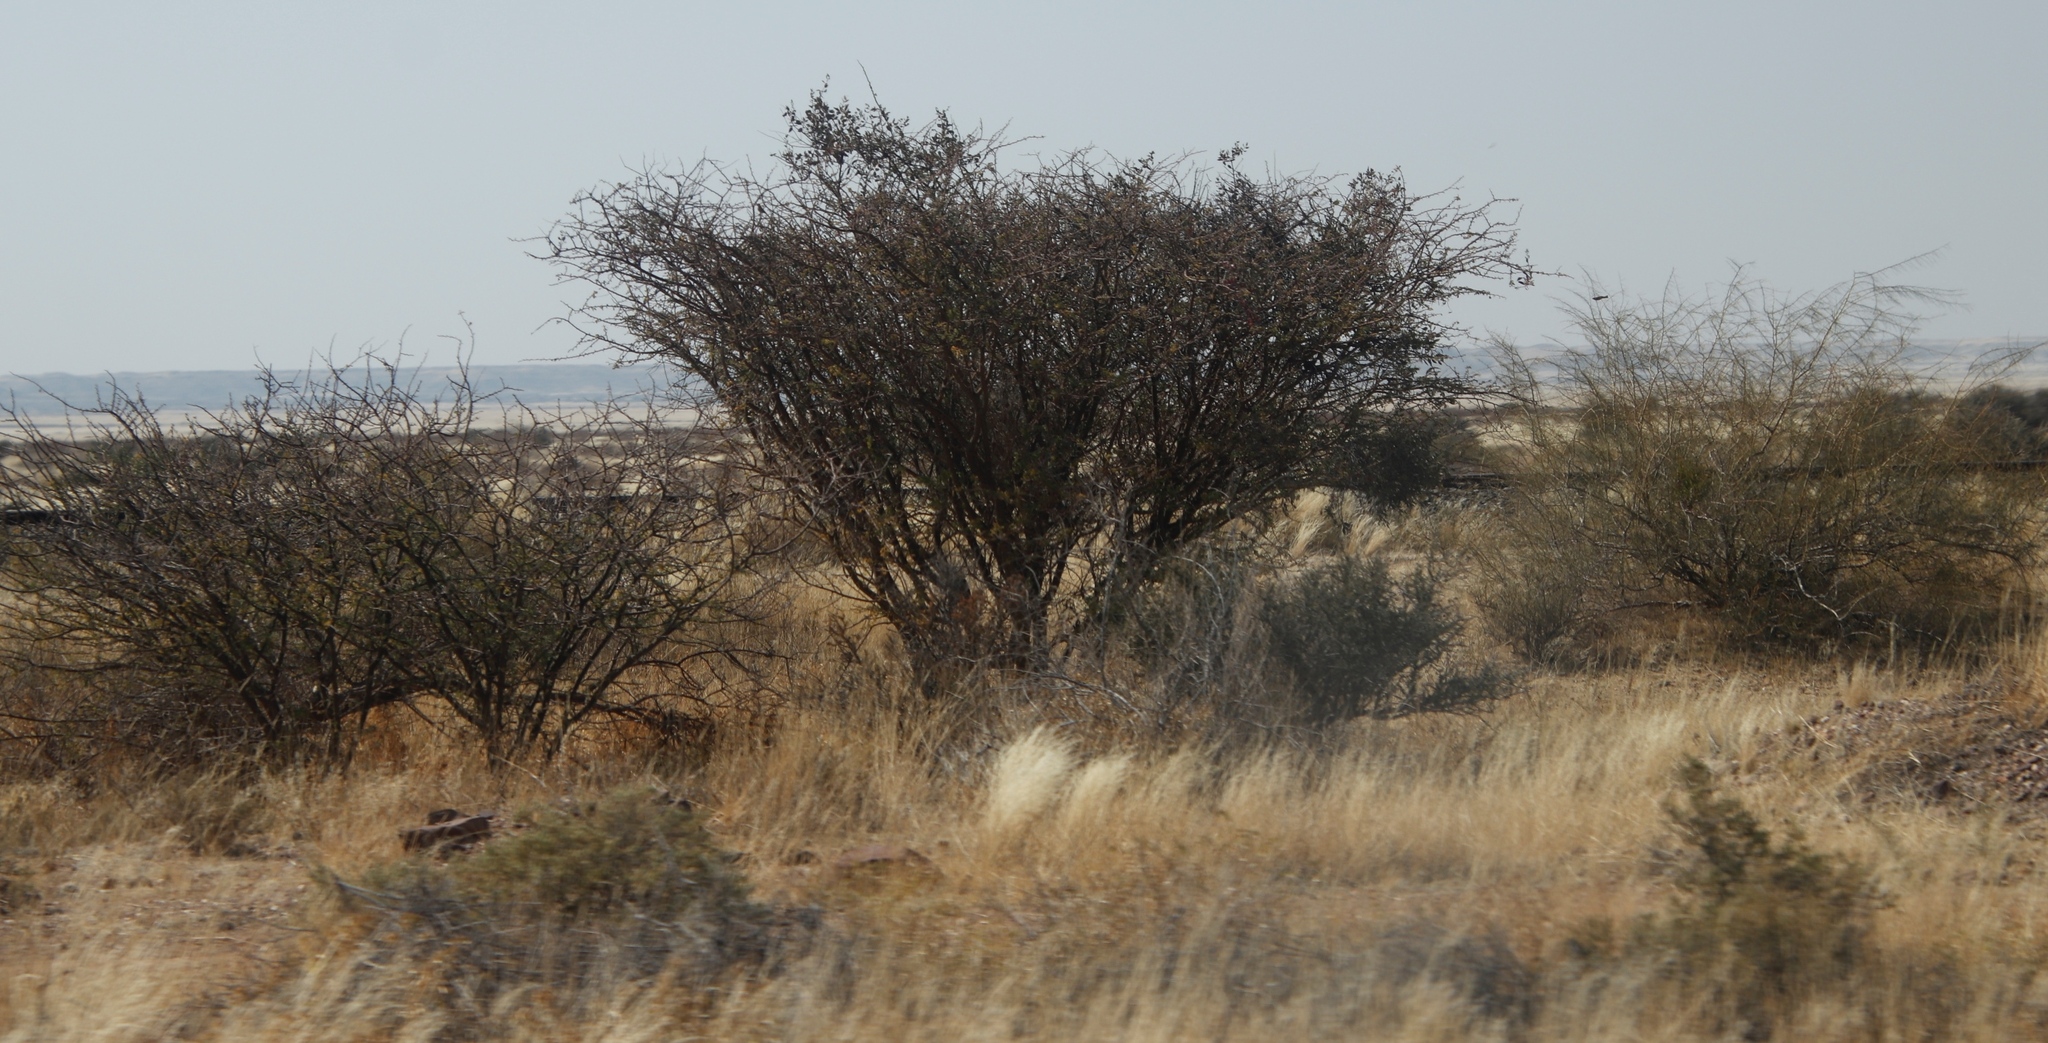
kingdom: Plantae
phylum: Tracheophyta
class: Magnoliopsida
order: Fabales
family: Fabaceae
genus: Senegalia
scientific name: Senegalia mellifera
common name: Hookthorn
